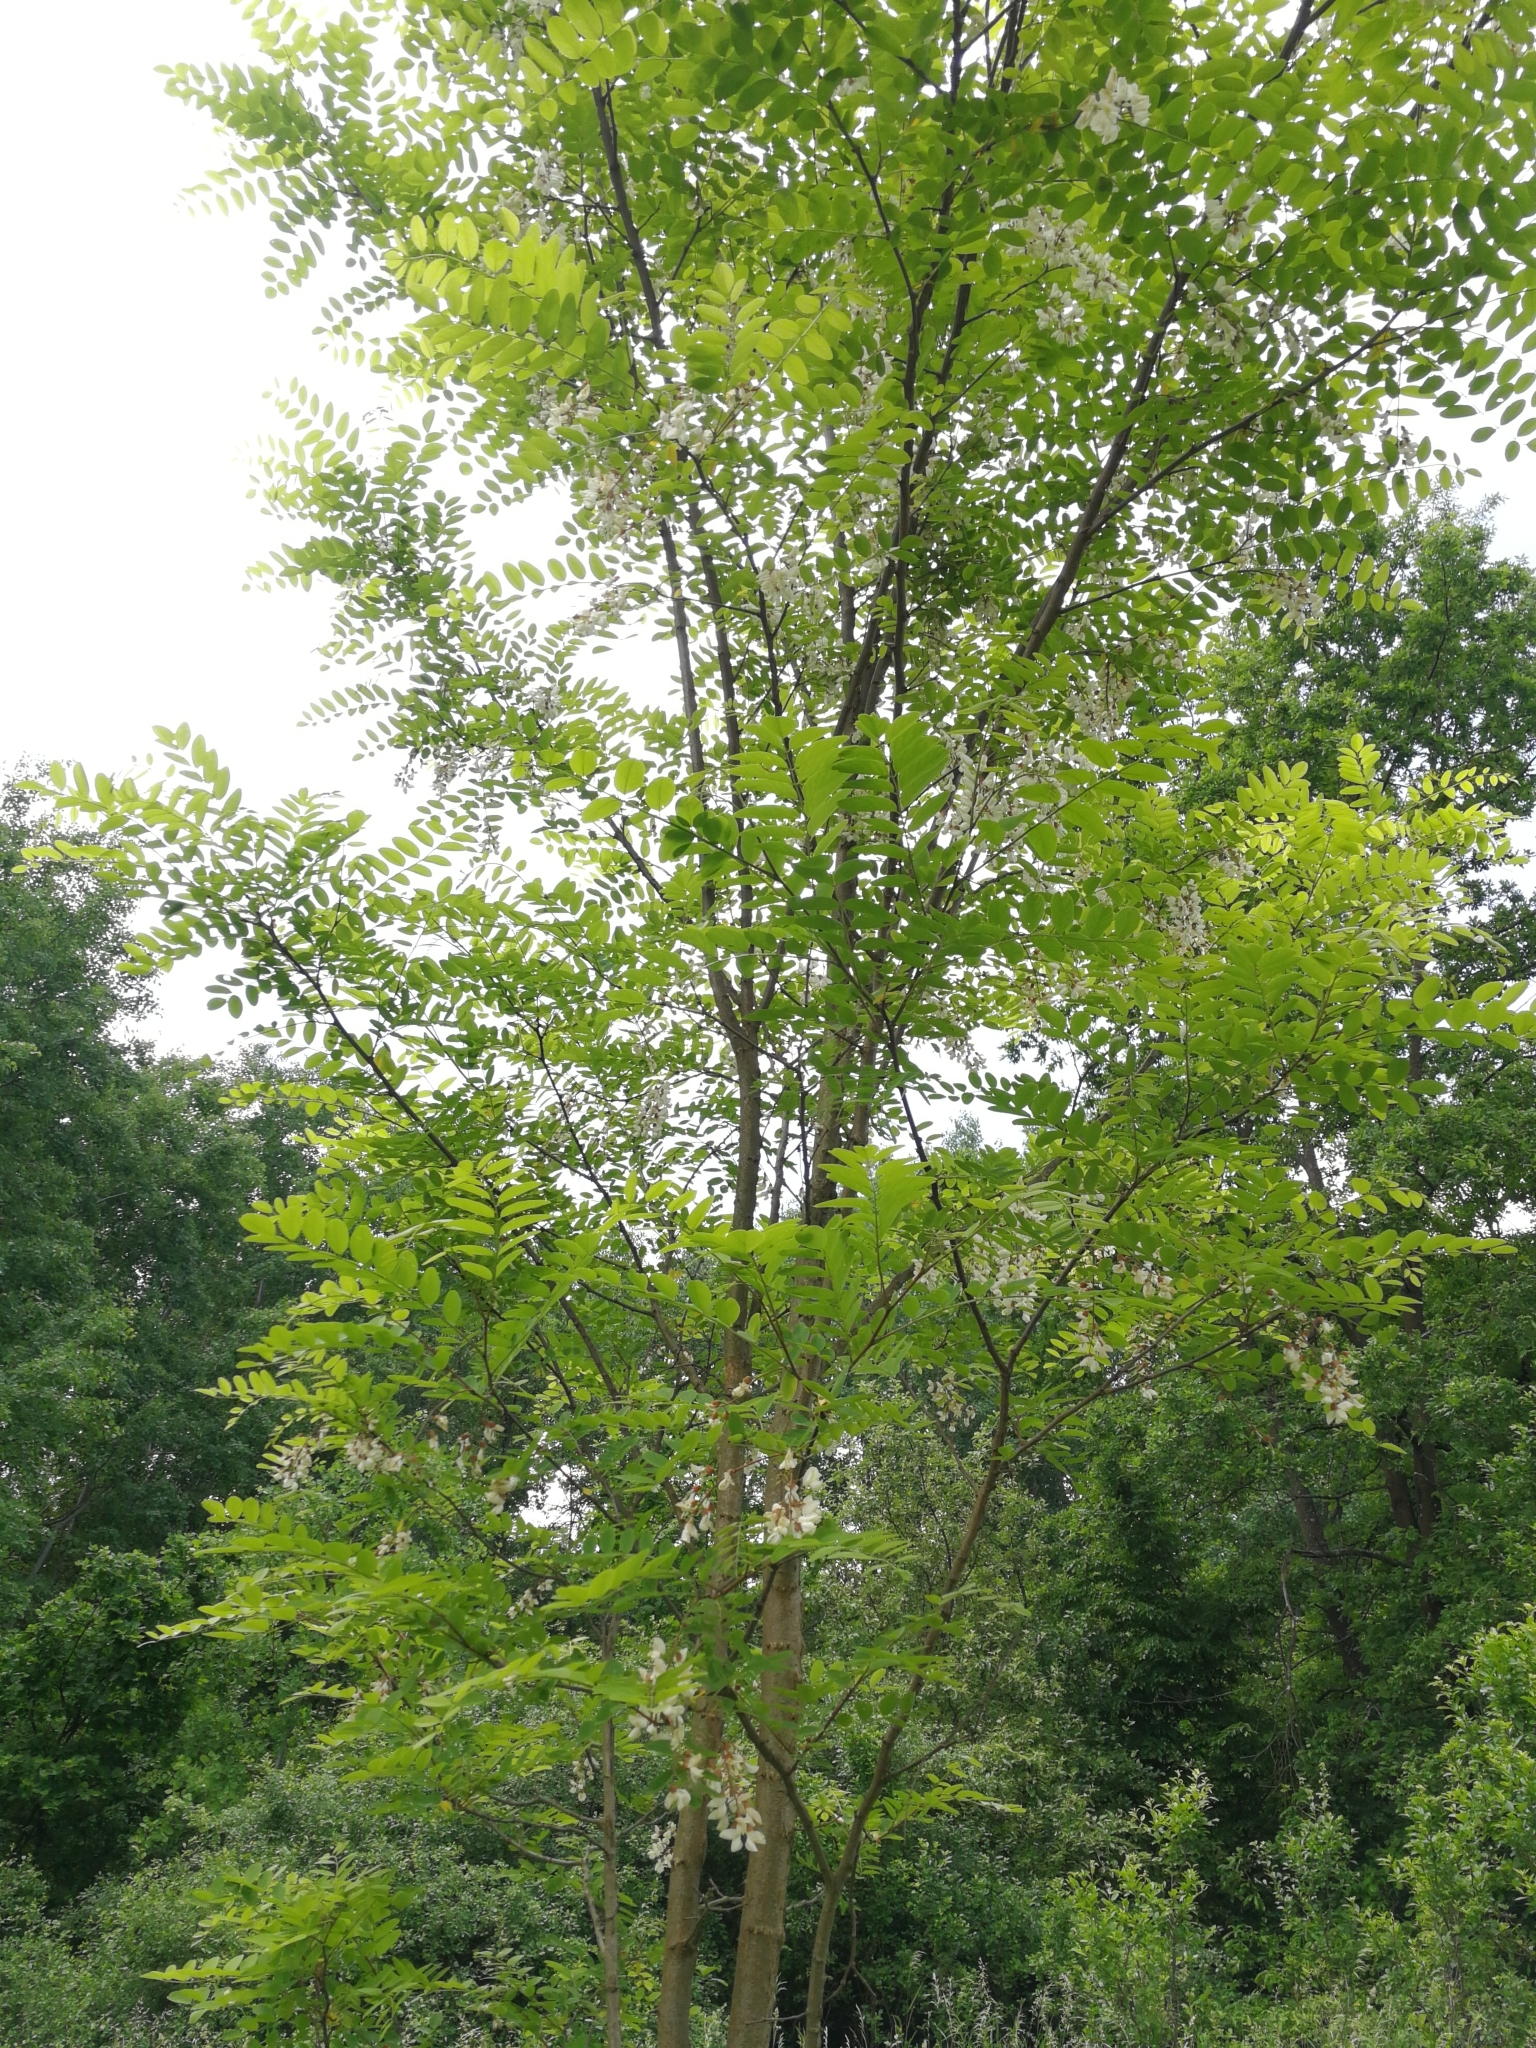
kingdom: Plantae
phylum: Tracheophyta
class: Magnoliopsida
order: Fabales
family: Fabaceae
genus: Robinia
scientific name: Robinia pseudoacacia
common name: Black locust
